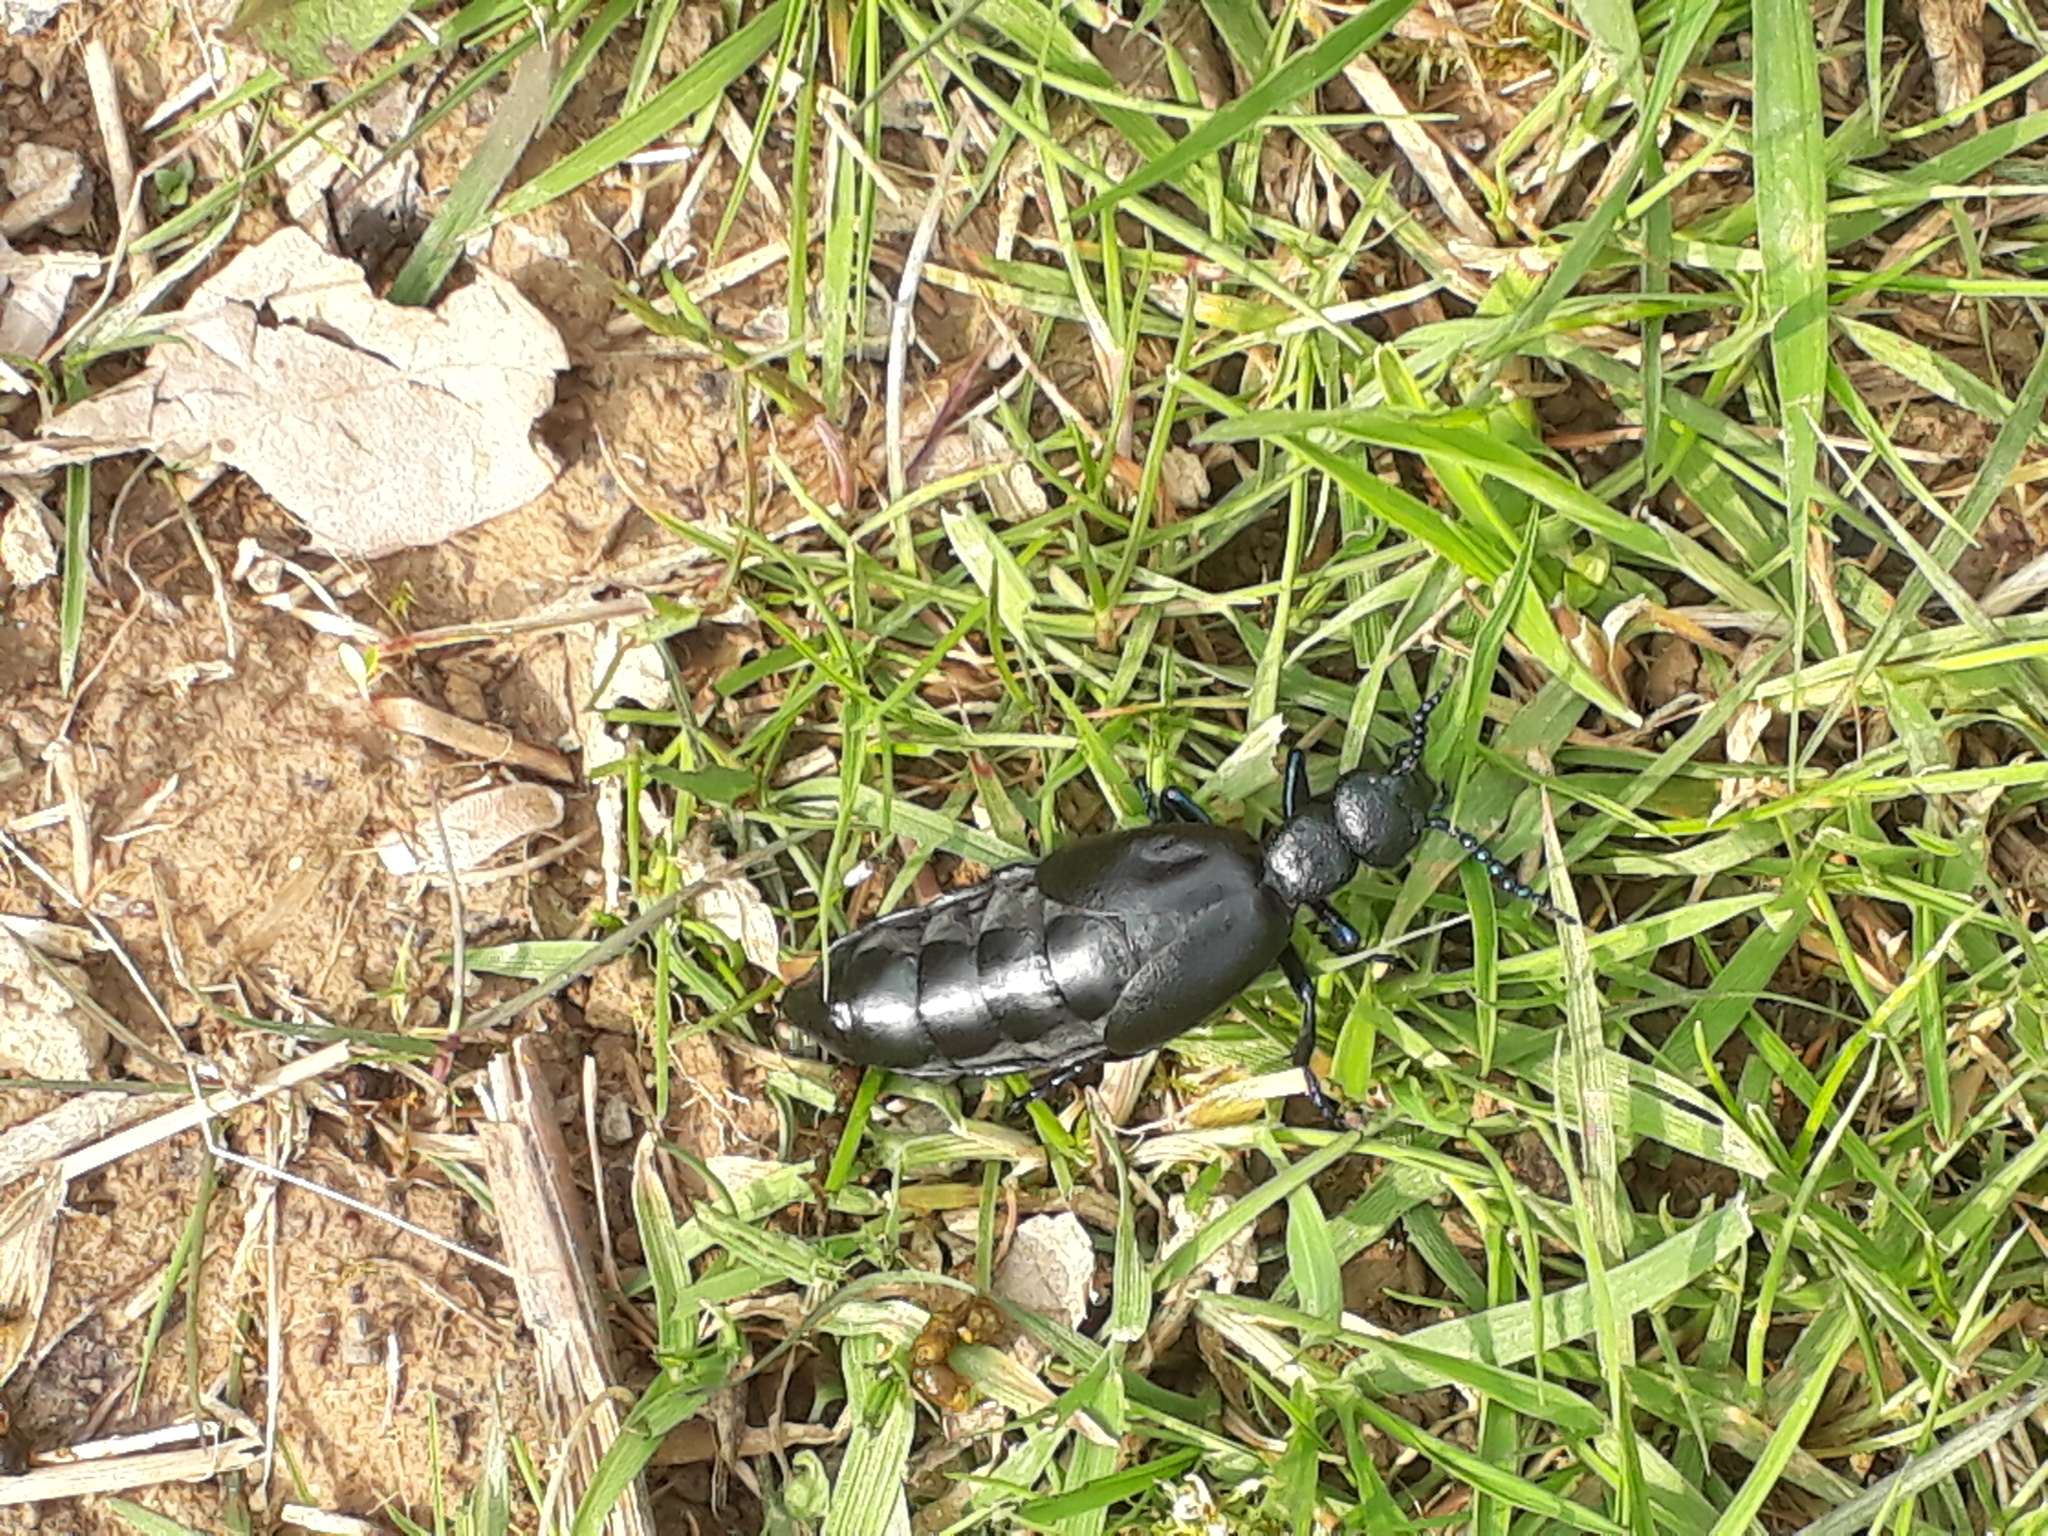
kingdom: Animalia
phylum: Arthropoda
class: Insecta
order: Coleoptera
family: Meloidae
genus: Meloe
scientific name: Meloe proscarabaeus
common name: Black oil-beetle
